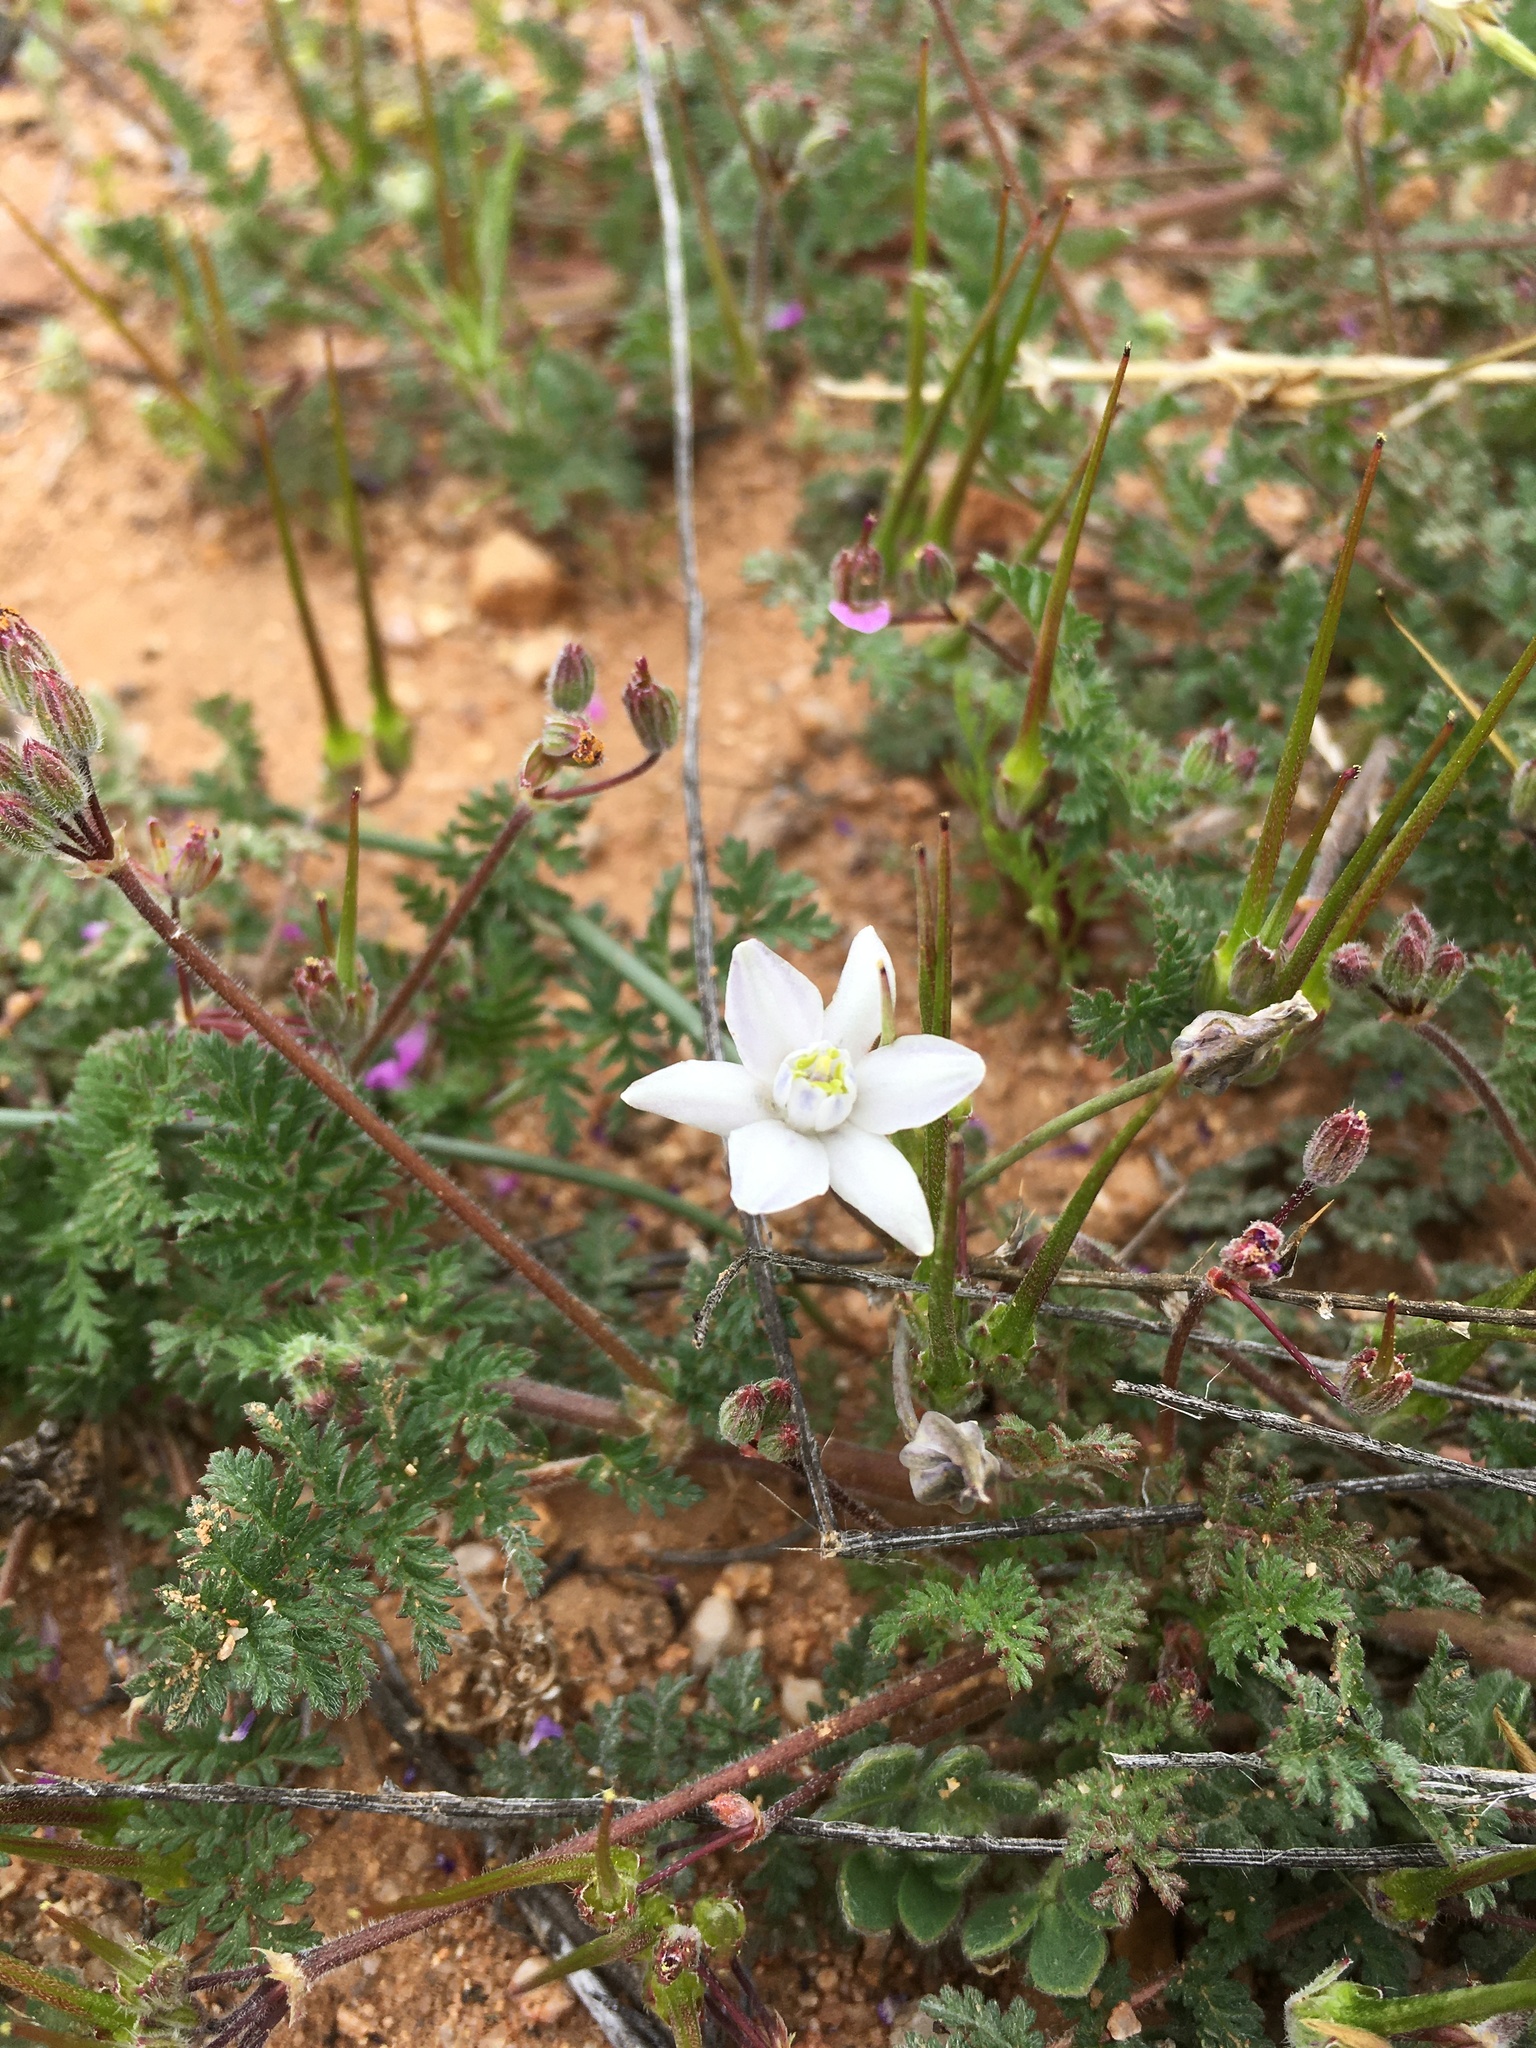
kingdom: Plantae
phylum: Tracheophyta
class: Liliopsida
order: Asparagales
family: Asparagaceae
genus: Muilla
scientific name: Muilla lordsburgana
